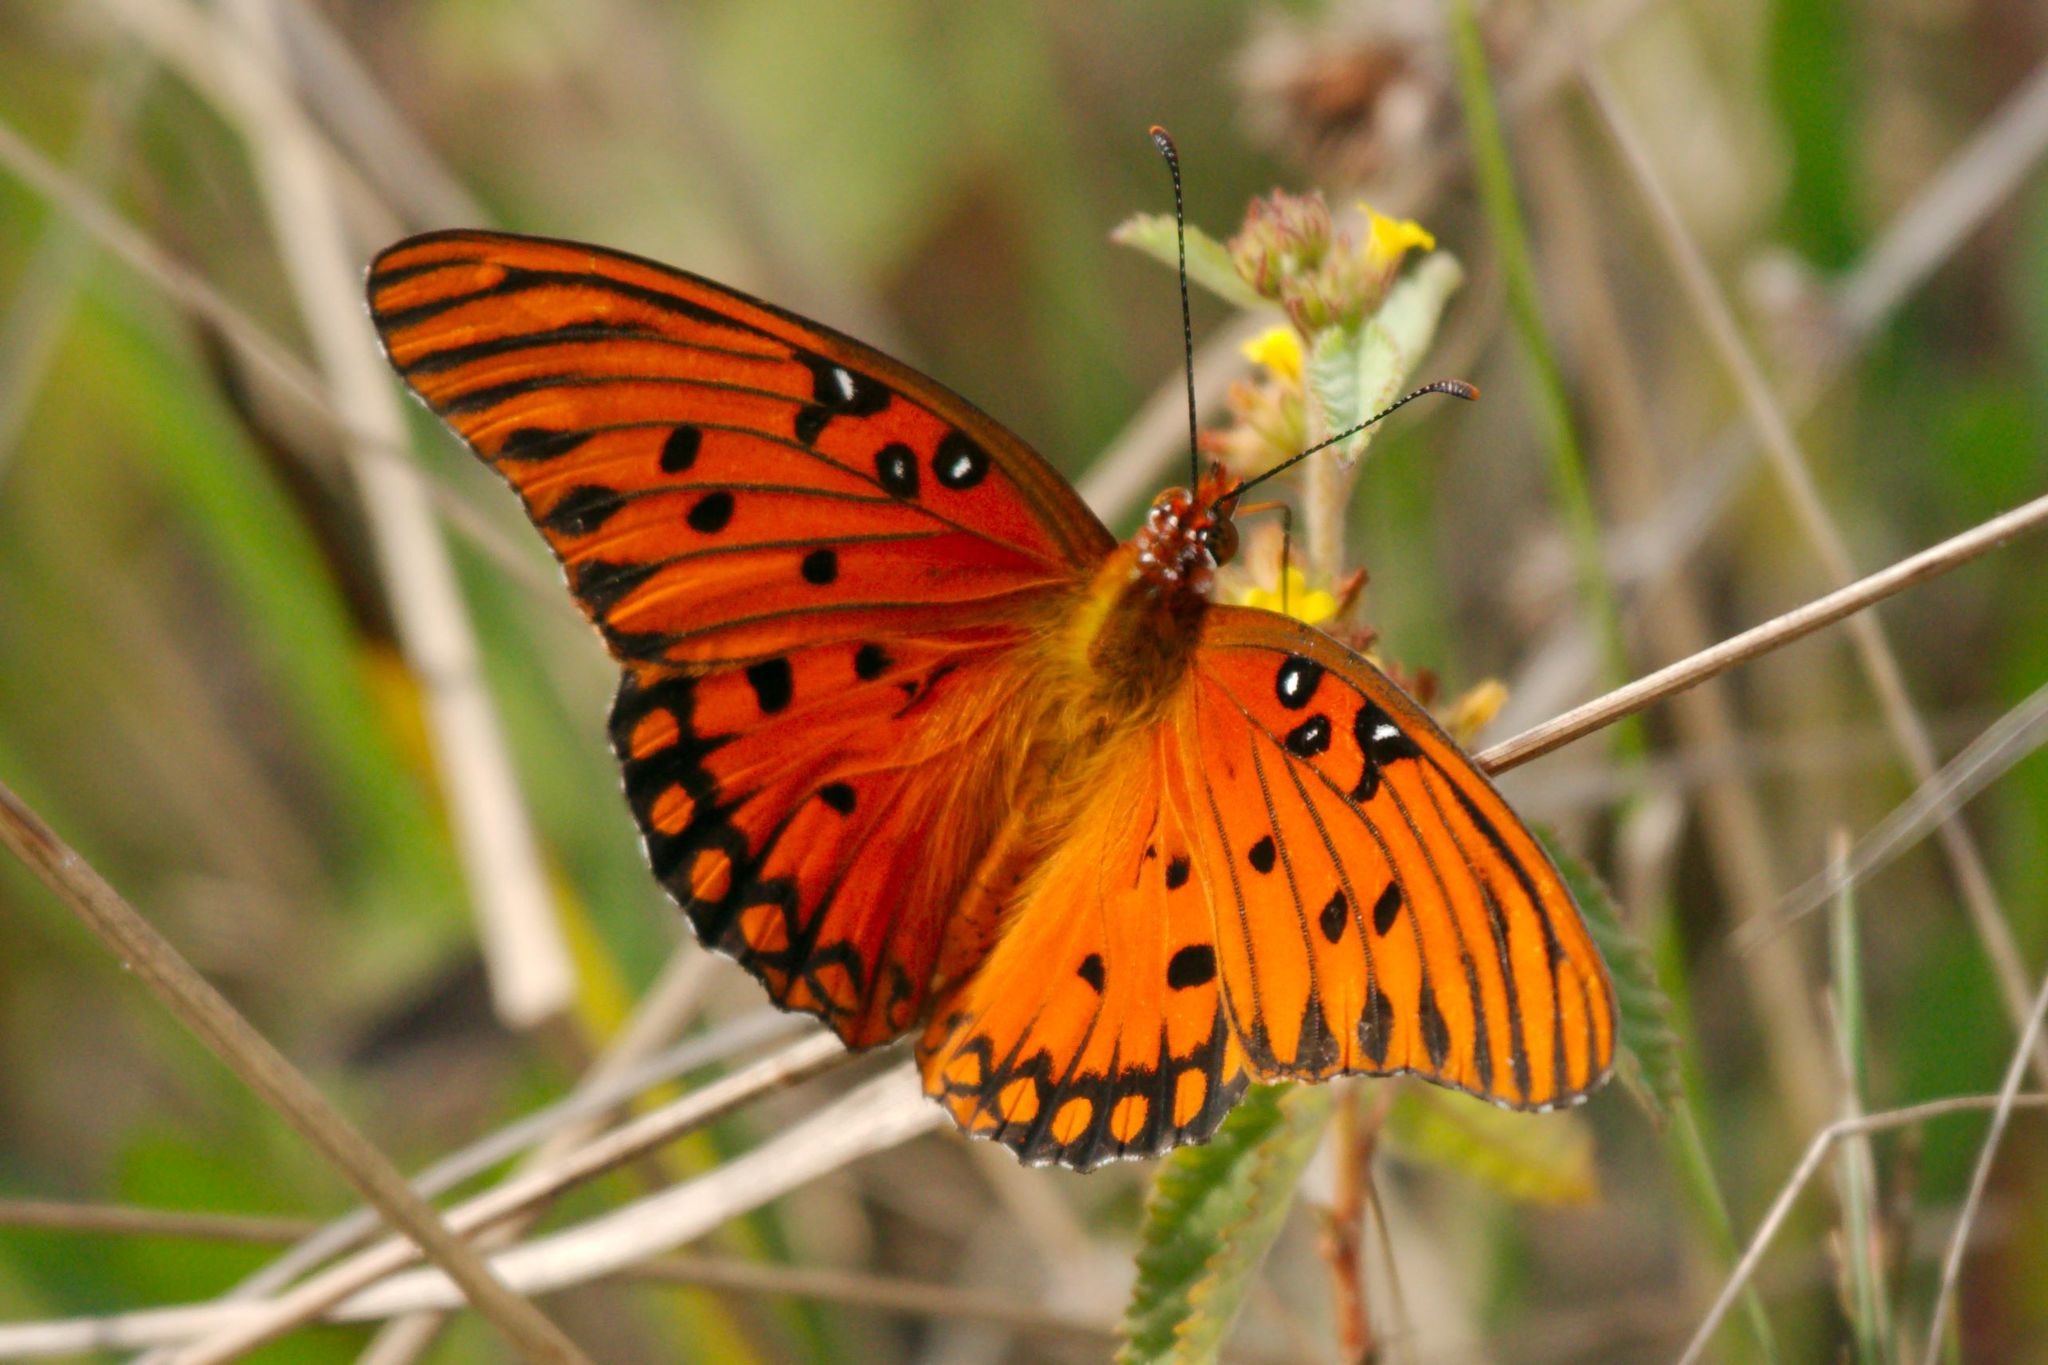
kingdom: Animalia
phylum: Arthropoda
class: Insecta
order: Lepidoptera
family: Nymphalidae
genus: Dione
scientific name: Dione vanillae
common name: Gulf fritillary
